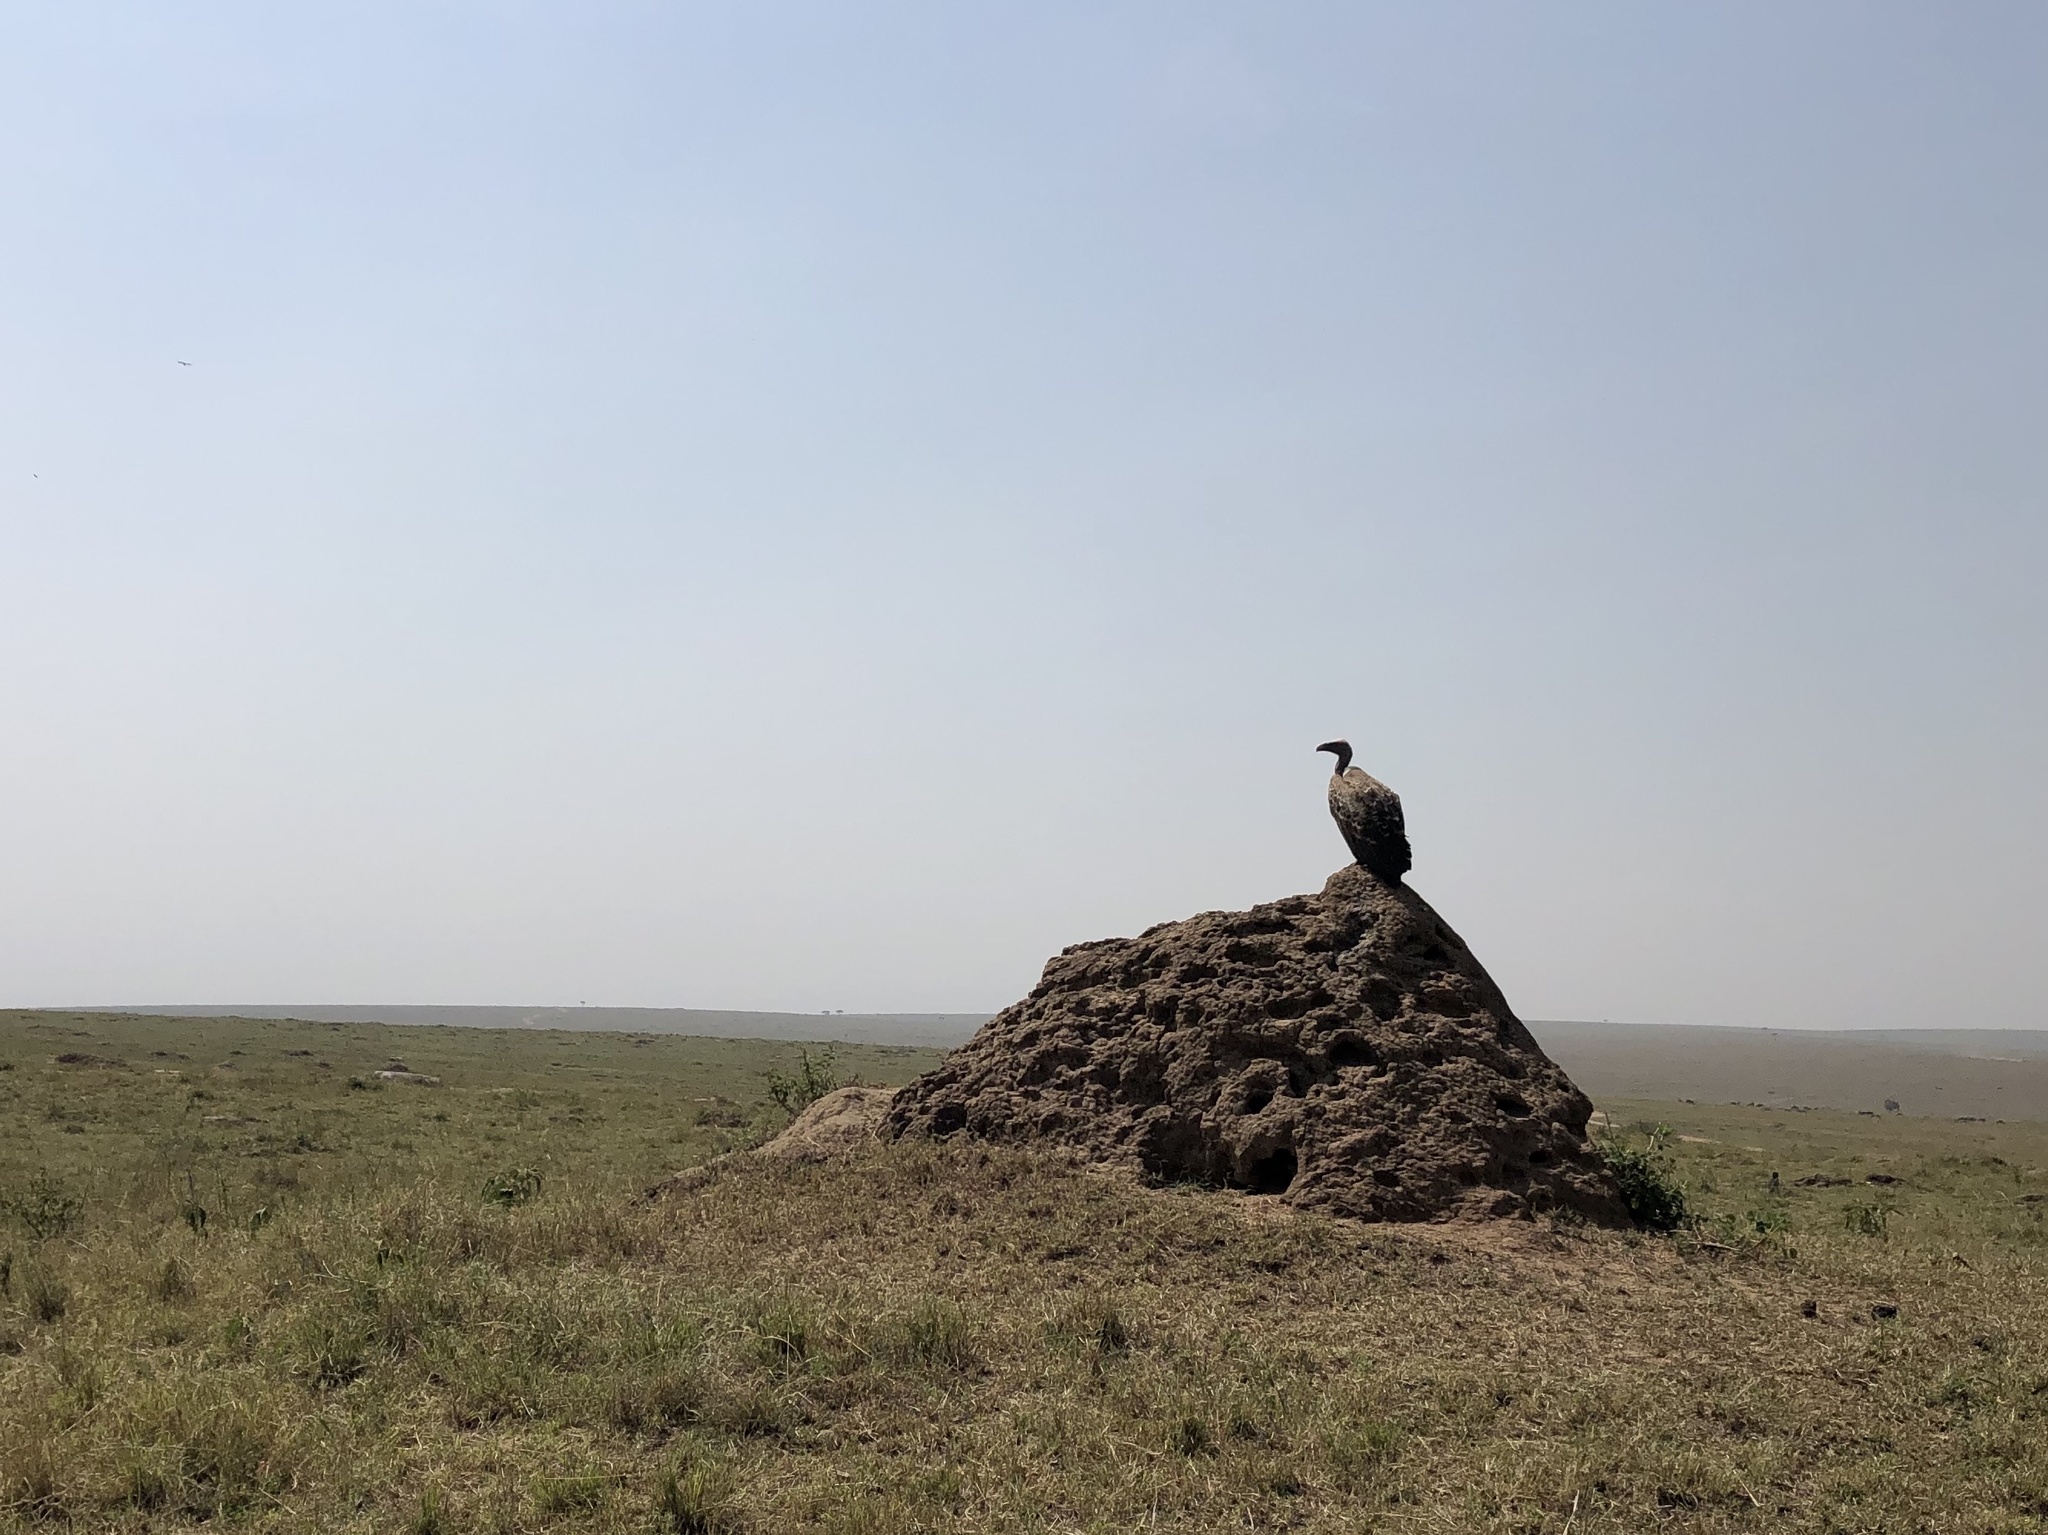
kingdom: Animalia
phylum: Chordata
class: Aves
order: Accipitriformes
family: Accipitridae
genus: Gyps
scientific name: Gyps rueppellii
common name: Rüppell's vulture
